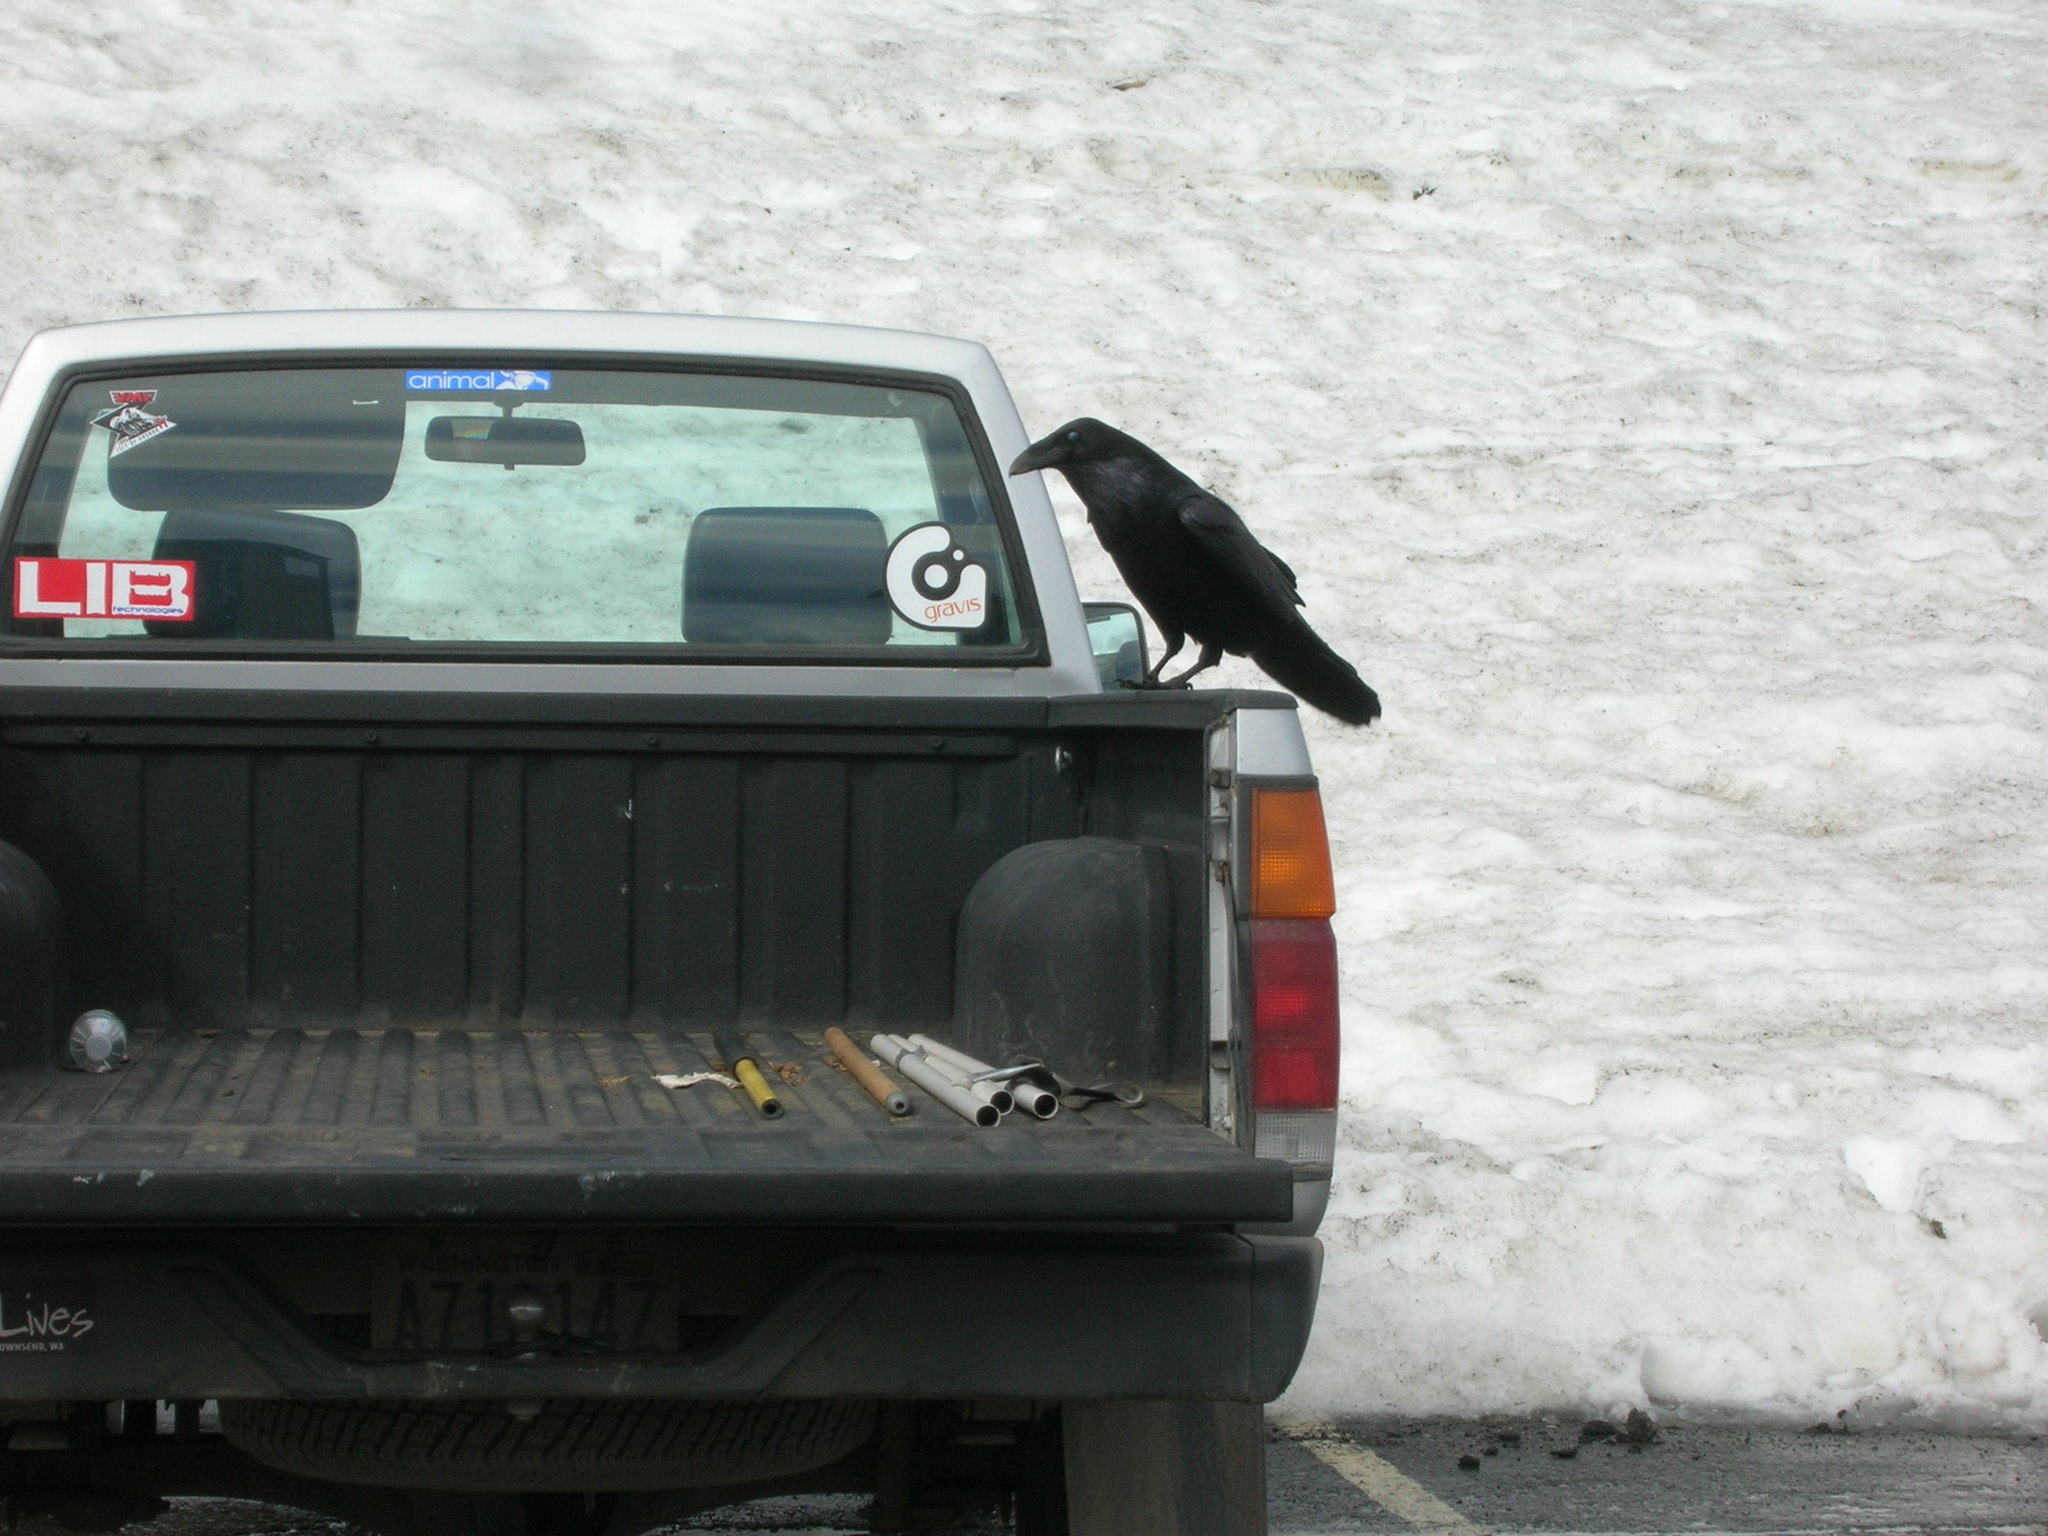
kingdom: Animalia
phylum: Chordata
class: Aves
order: Passeriformes
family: Corvidae
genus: Corvus
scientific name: Corvus corax
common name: Common raven
